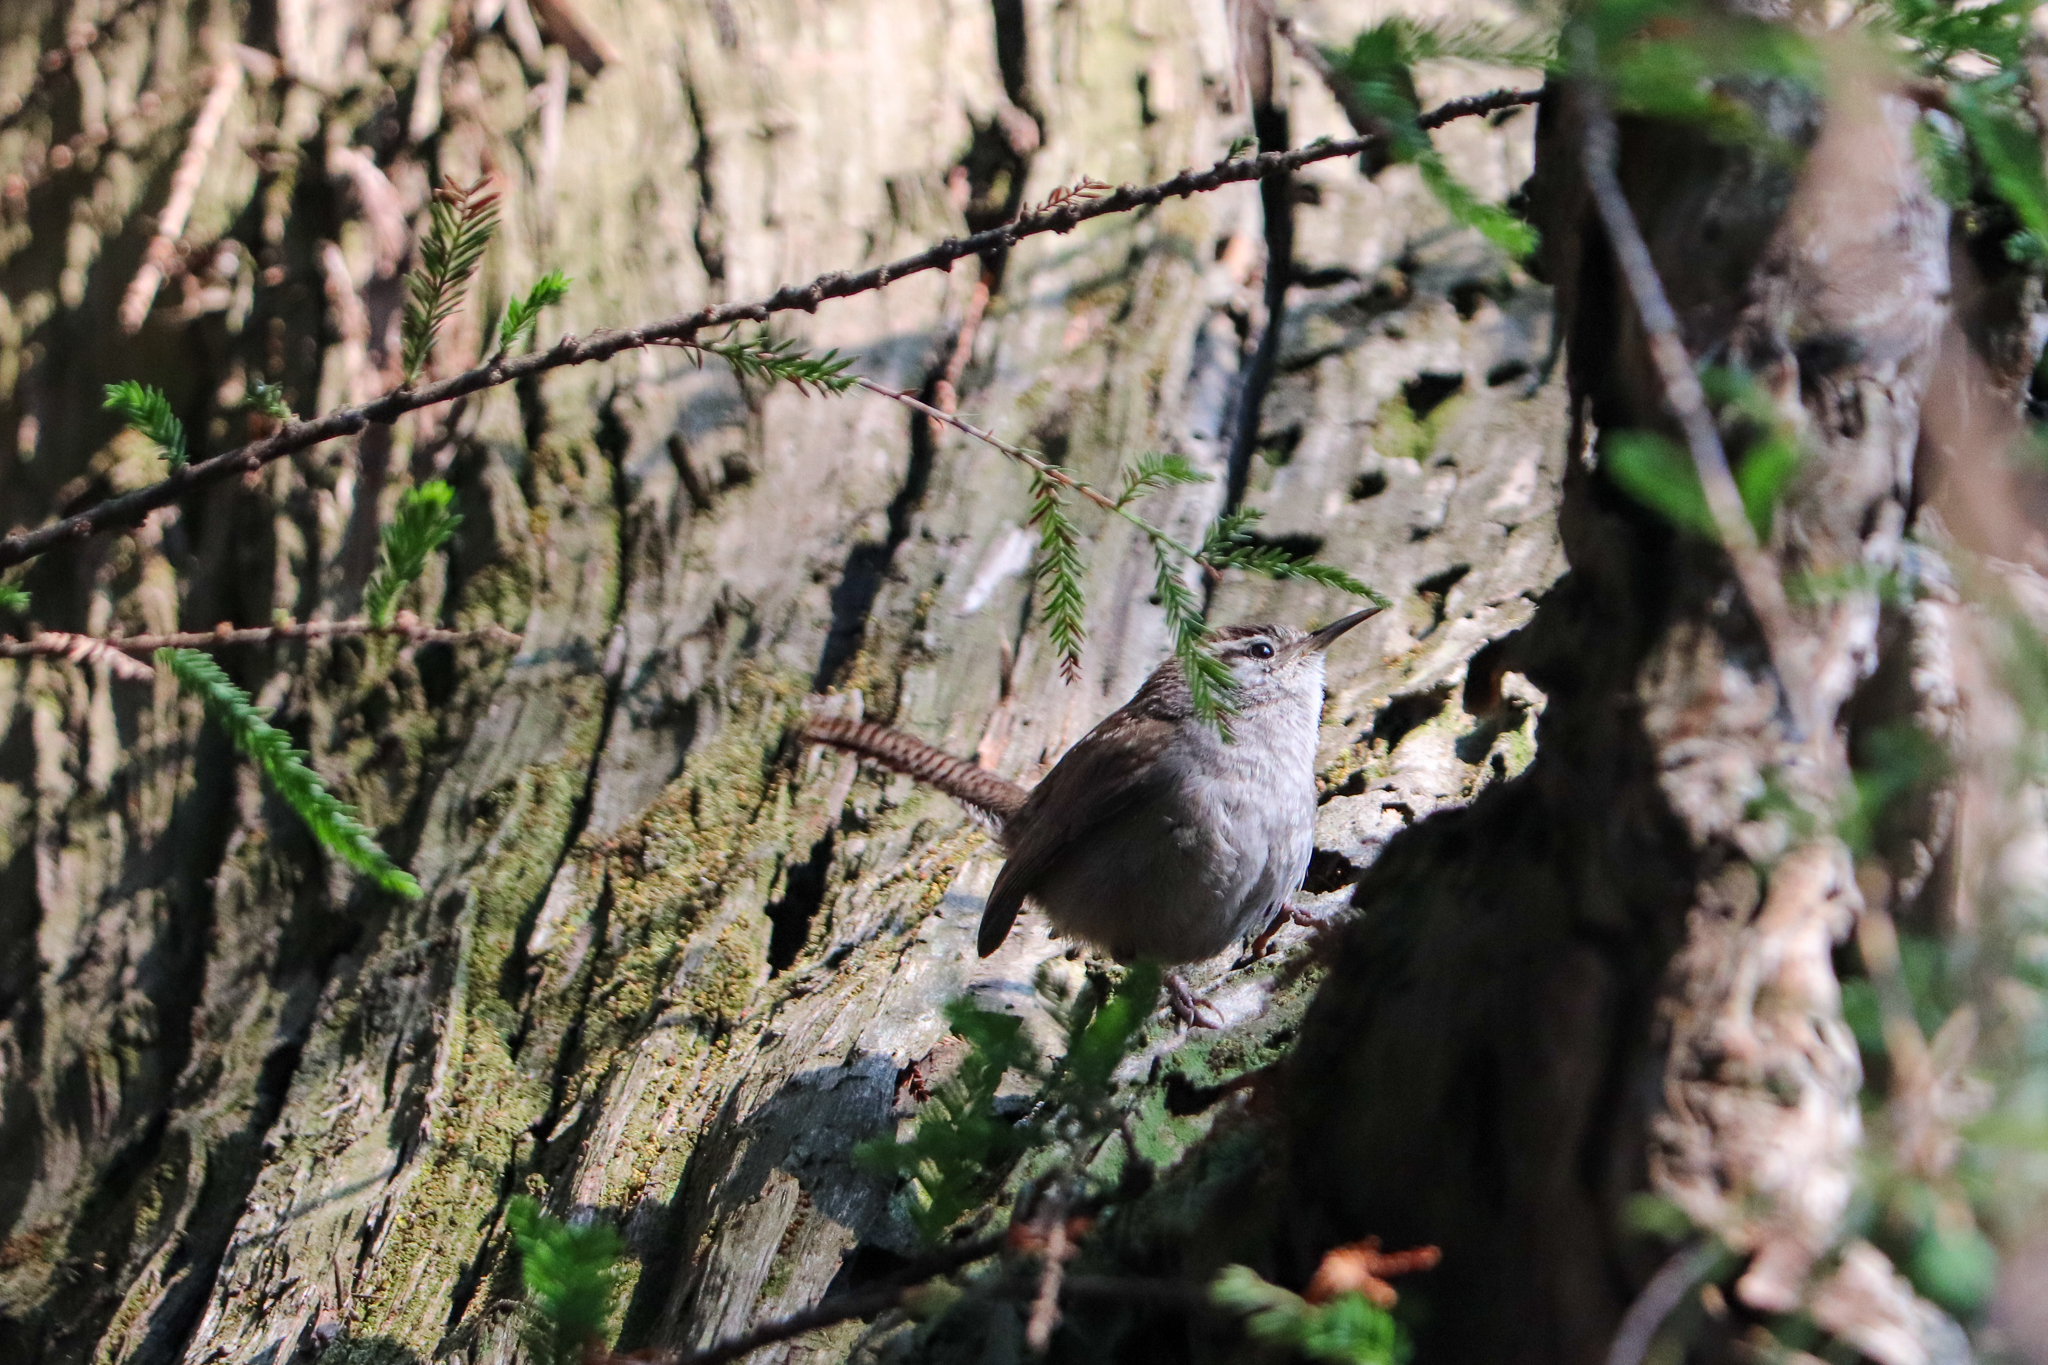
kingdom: Animalia
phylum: Chordata
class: Aves
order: Passeriformes
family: Troglodytidae
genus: Thryomanes
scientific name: Thryomanes bewickii
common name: Bewick's wren
